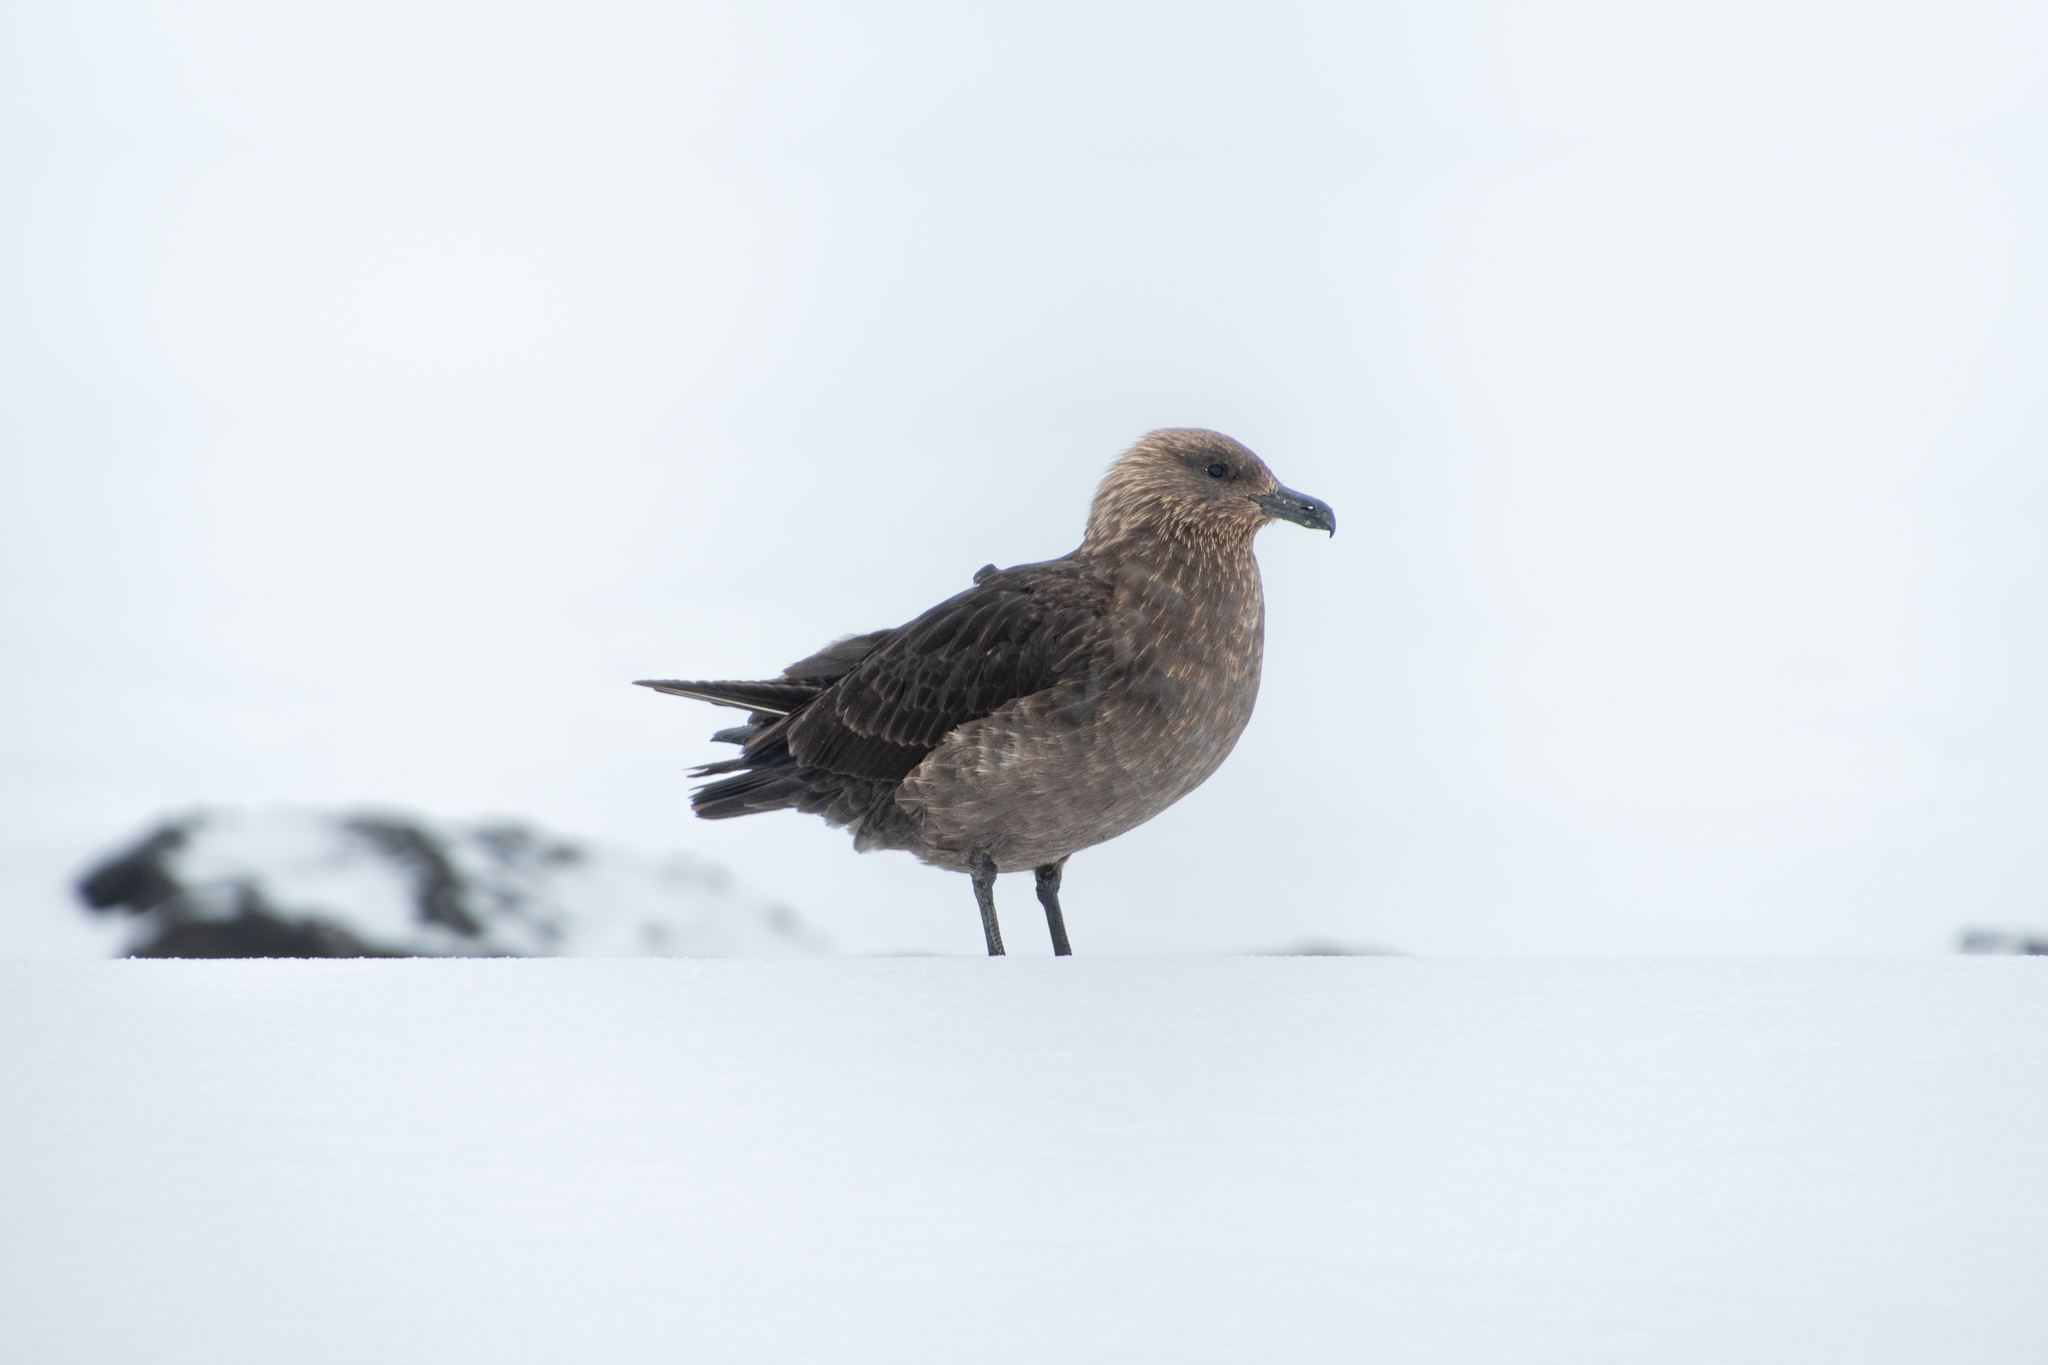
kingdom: Animalia
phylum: Chordata
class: Aves
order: Charadriiformes
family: Stercorariidae
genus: Stercorarius
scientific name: Stercorarius maccormicki
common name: South polar skua
